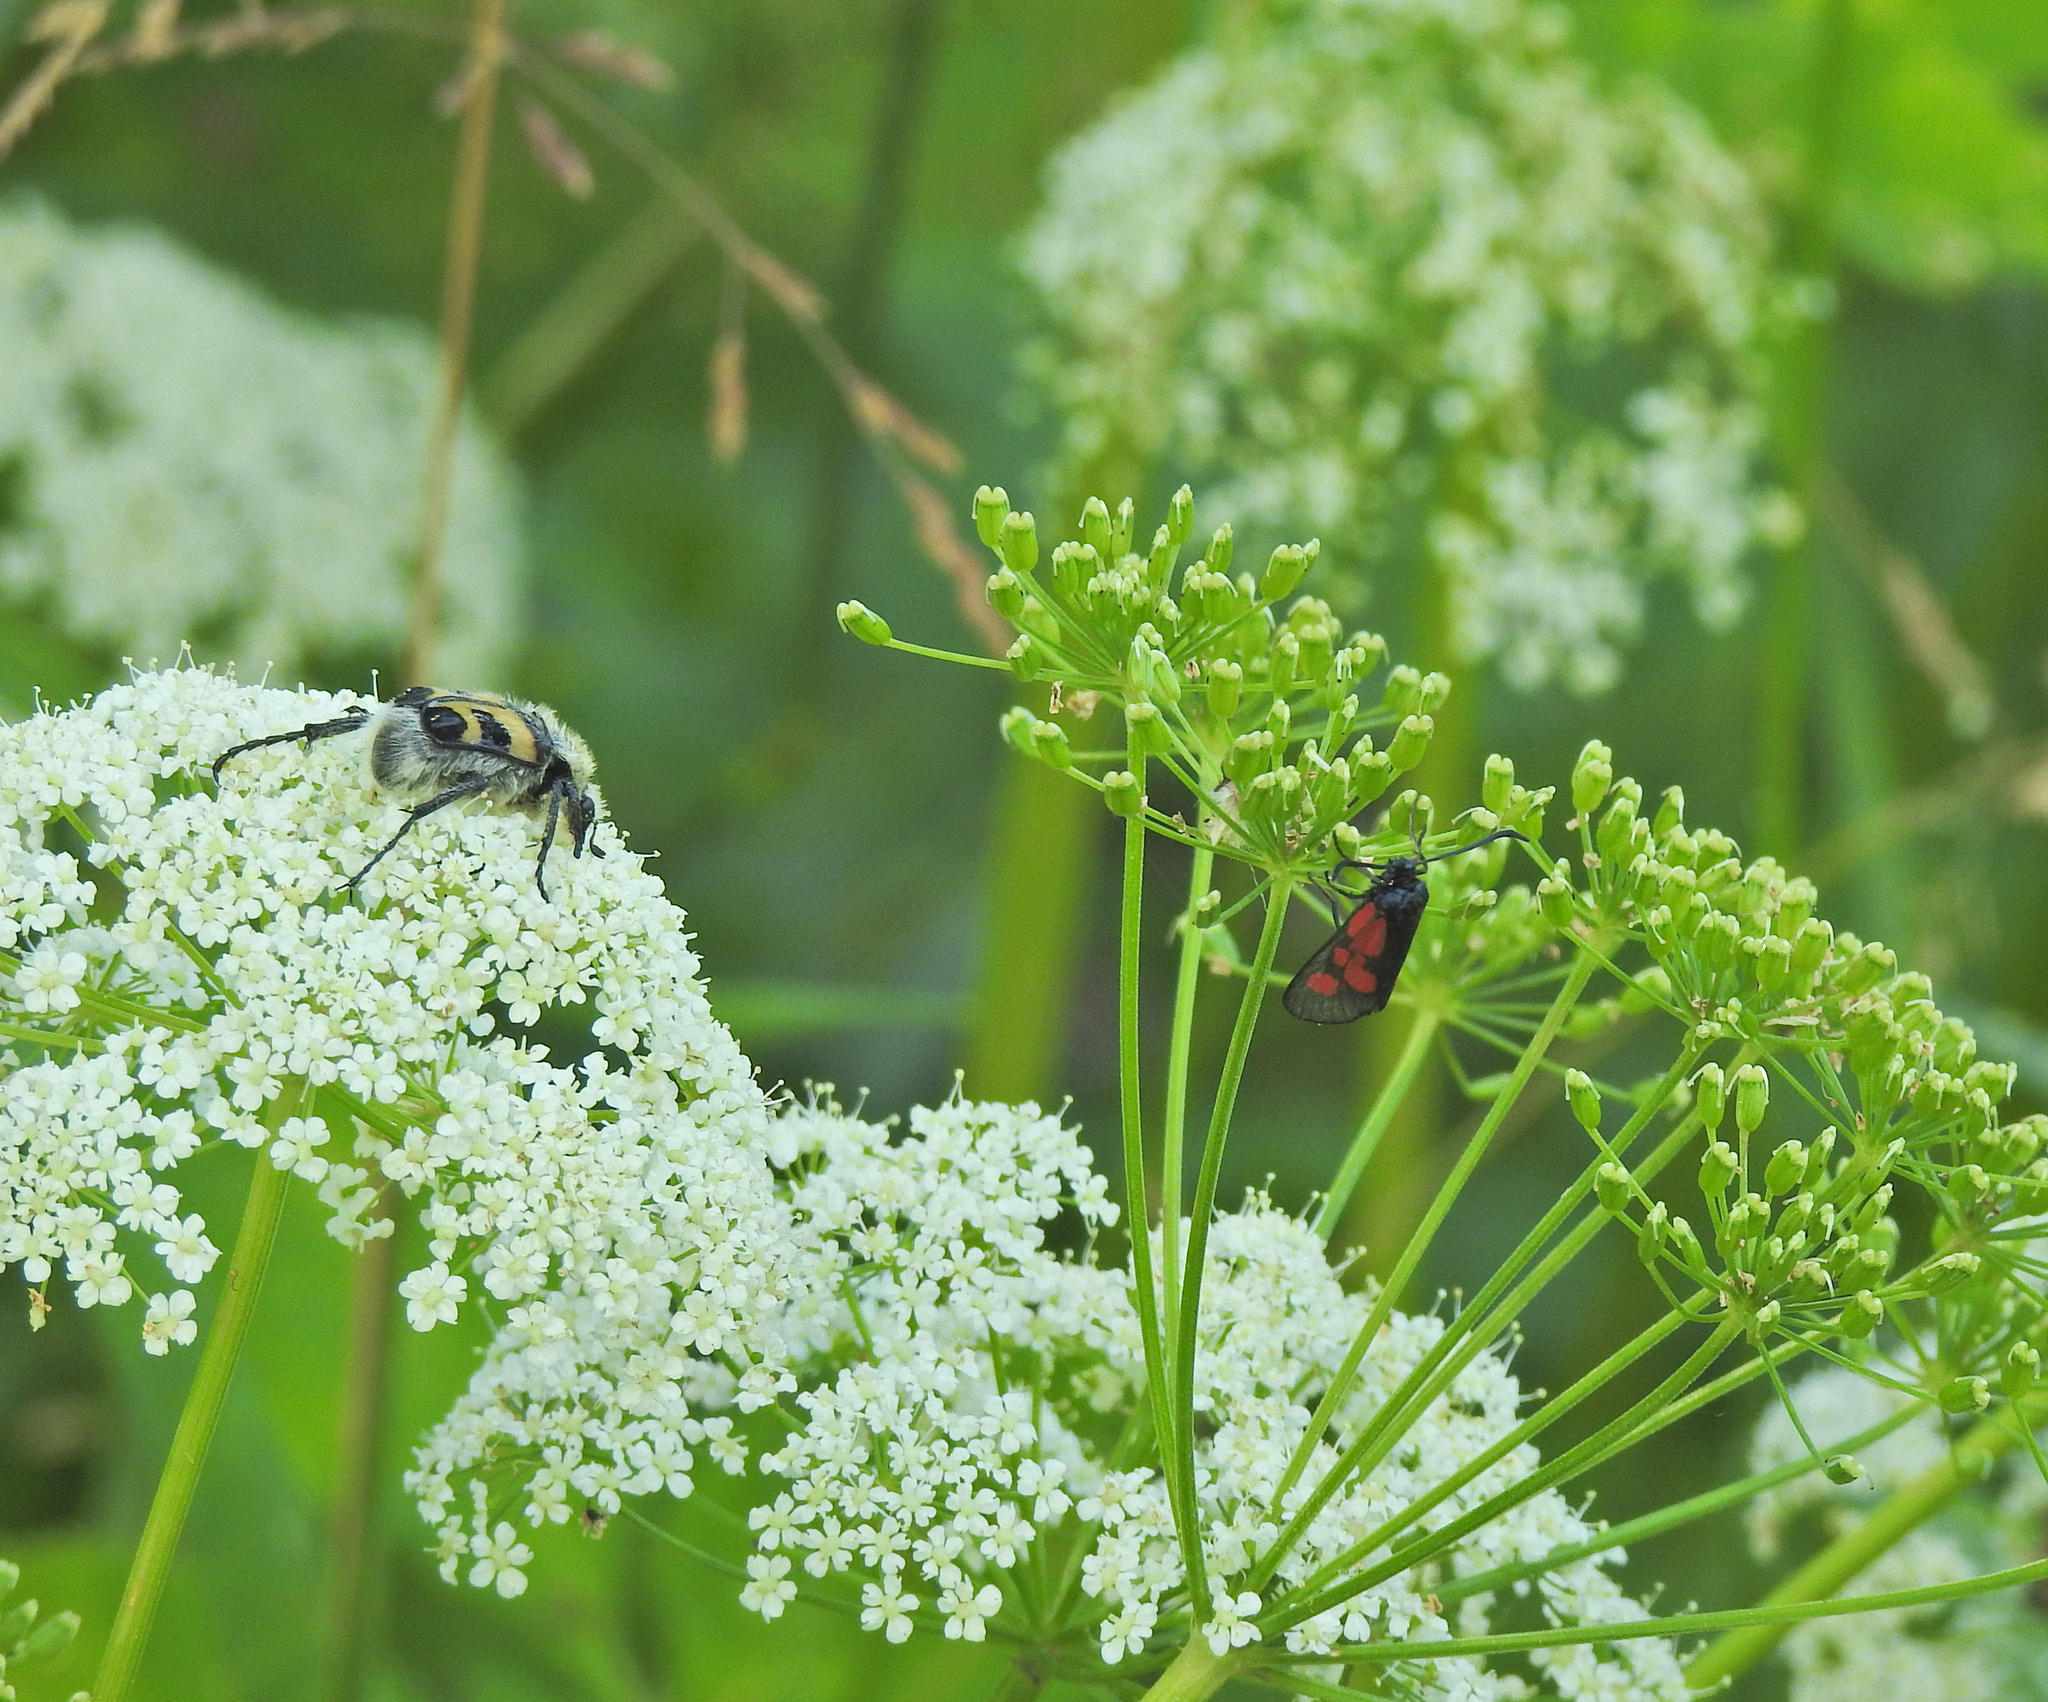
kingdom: Animalia
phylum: Arthropoda
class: Insecta
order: Coleoptera
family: Scarabaeidae
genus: Trichius
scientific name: Trichius fasciatus
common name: Bee beetle
